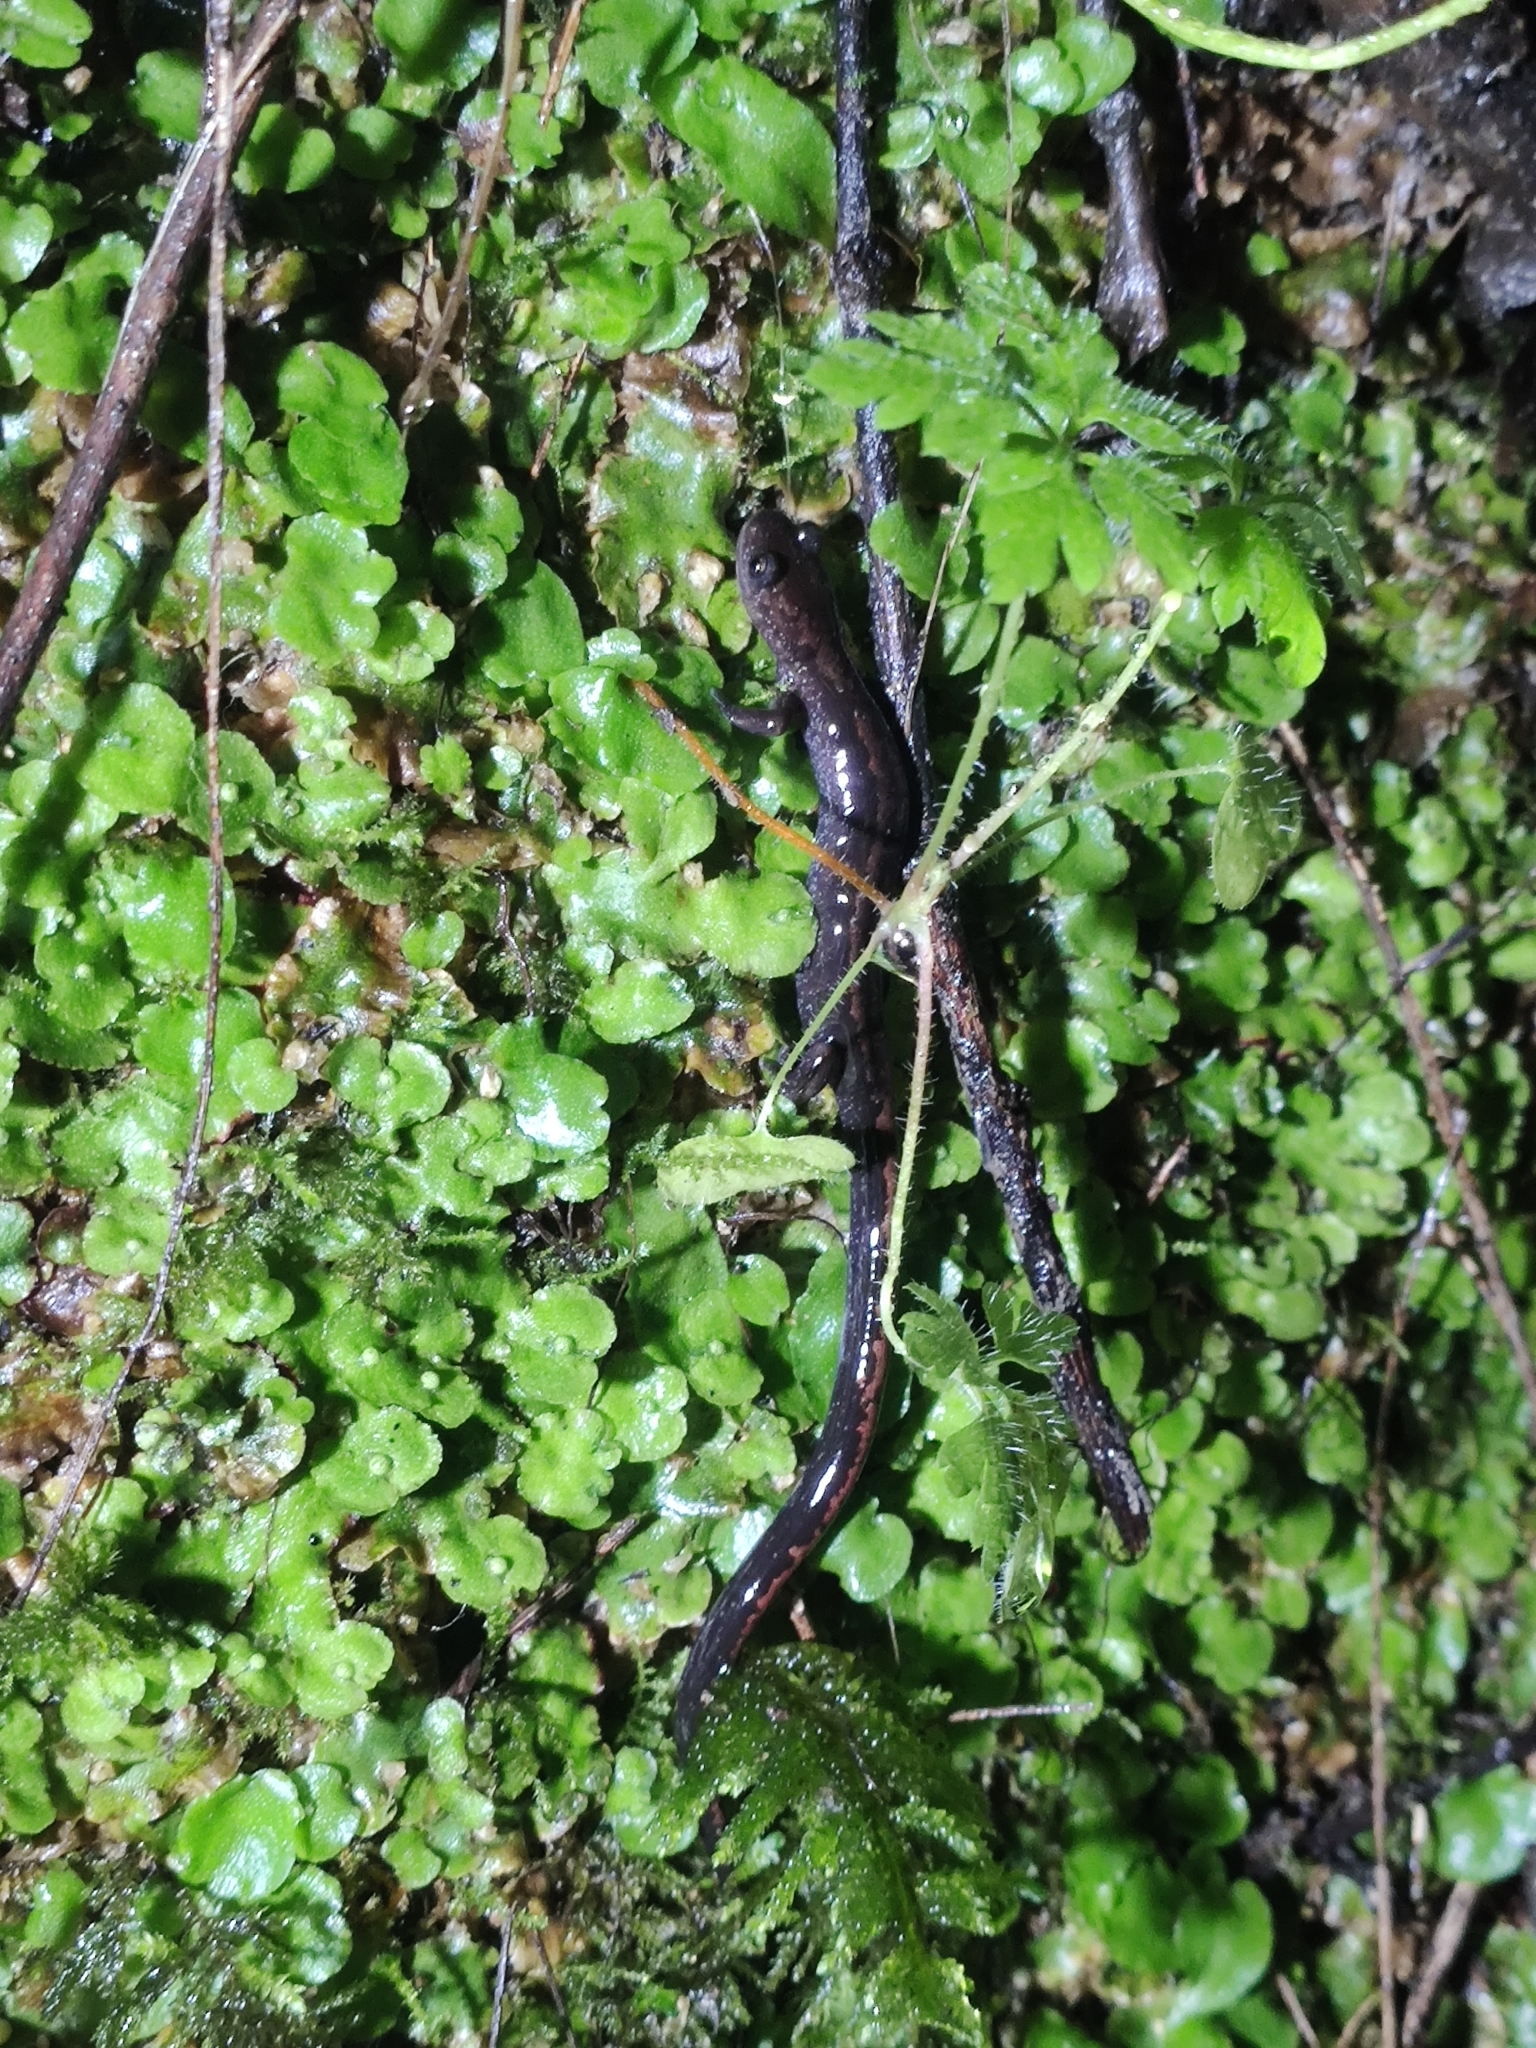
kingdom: Animalia
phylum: Chordata
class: Amphibia
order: Caudata
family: Salamandridae
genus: Chioglossa
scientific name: Chioglossa lusitanica
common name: Gold-striped salamander
